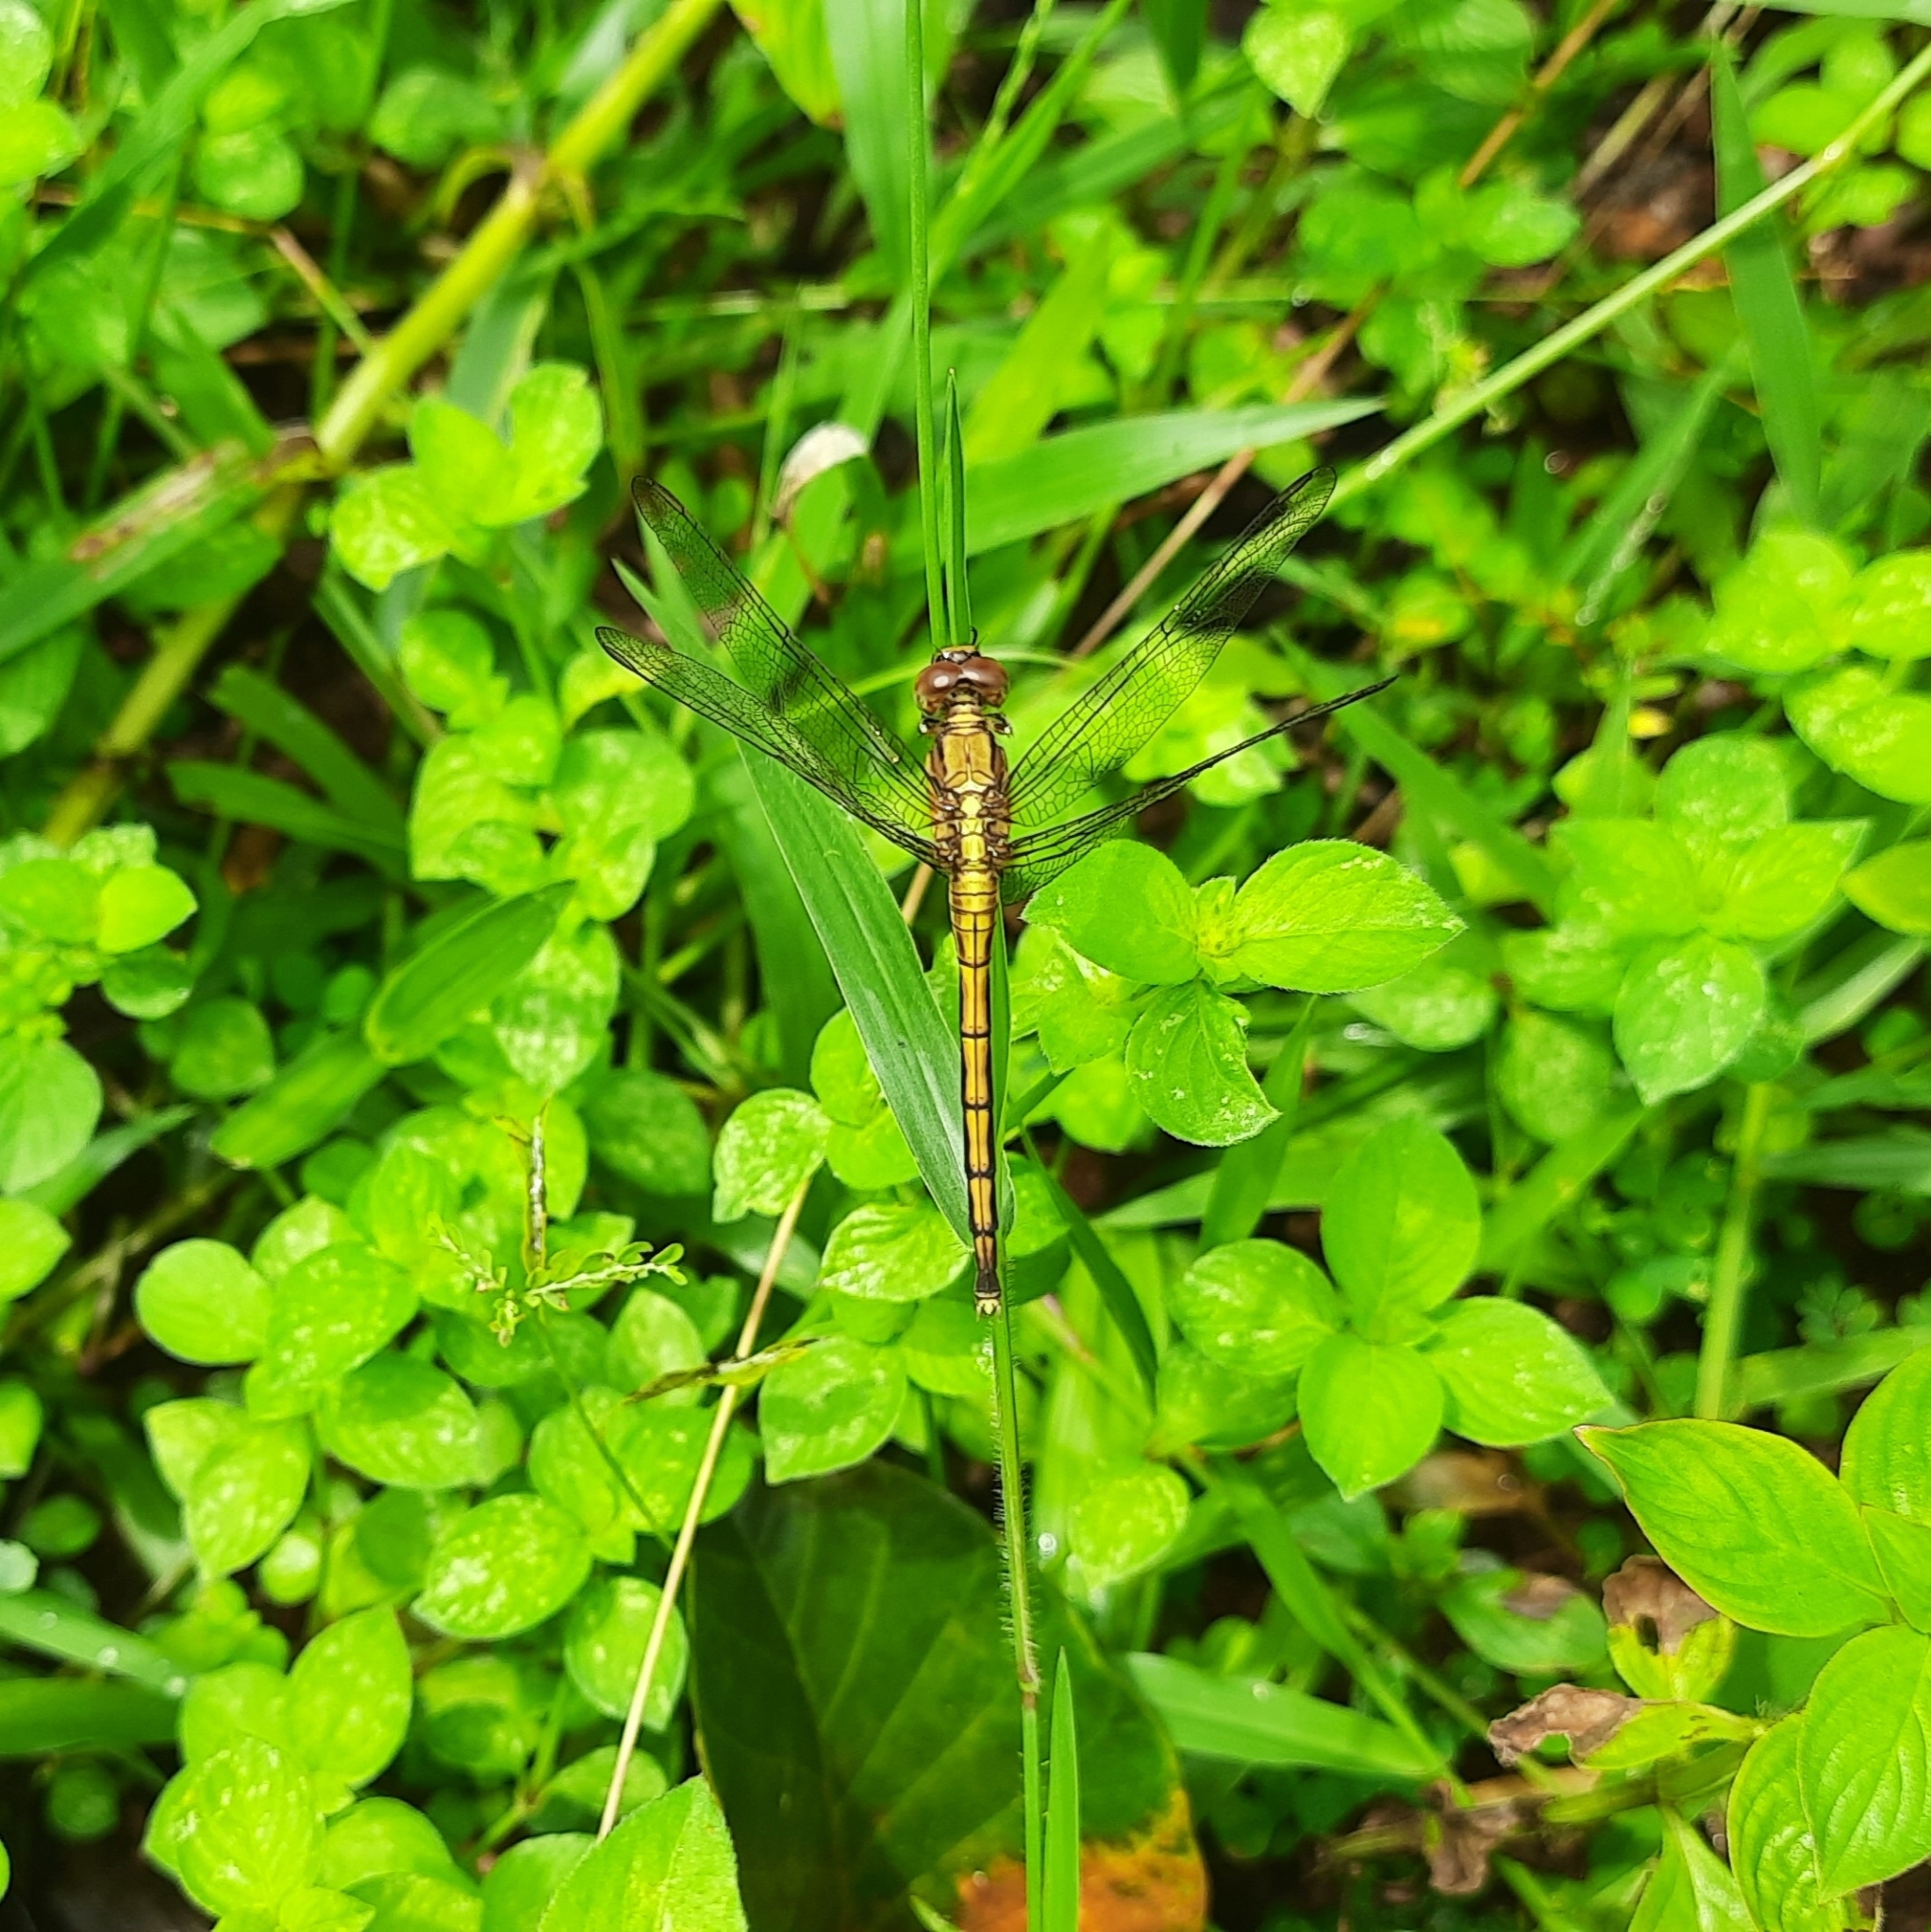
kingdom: Animalia
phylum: Arthropoda
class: Insecta
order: Odonata
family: Libellulidae
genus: Orthetrum
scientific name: Orthetrum luzonicum
